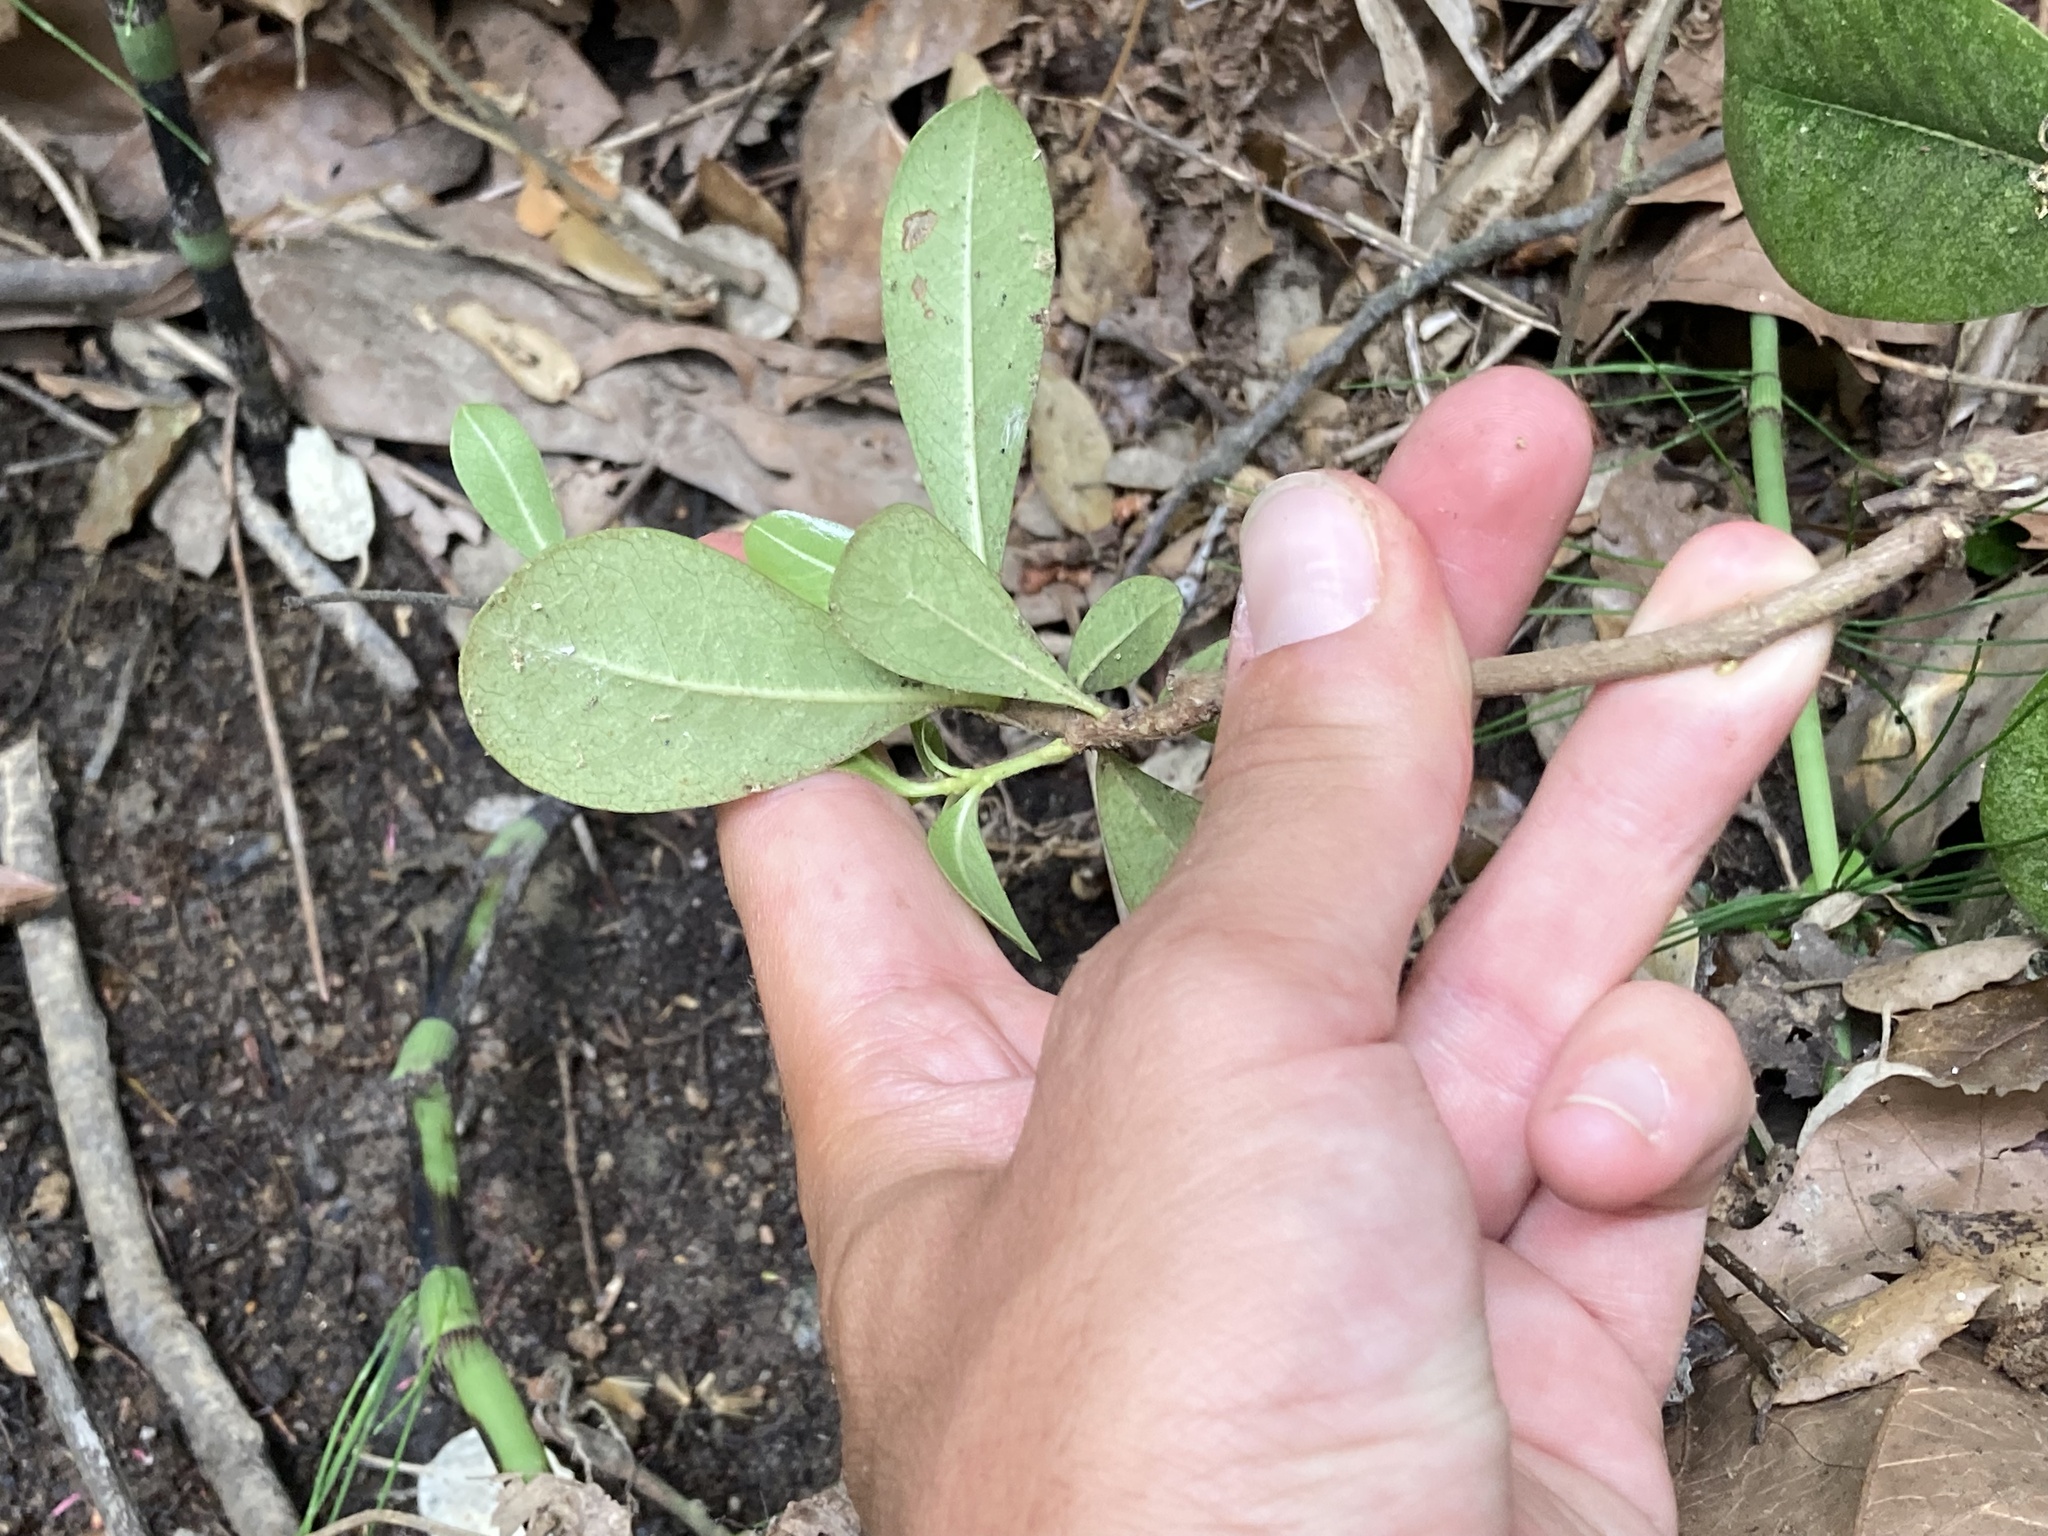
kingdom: Plantae
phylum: Tracheophyta
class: Magnoliopsida
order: Apiales
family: Pittosporaceae
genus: Pittosporum
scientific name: Pittosporum tobira
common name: Japanese cheesewood
